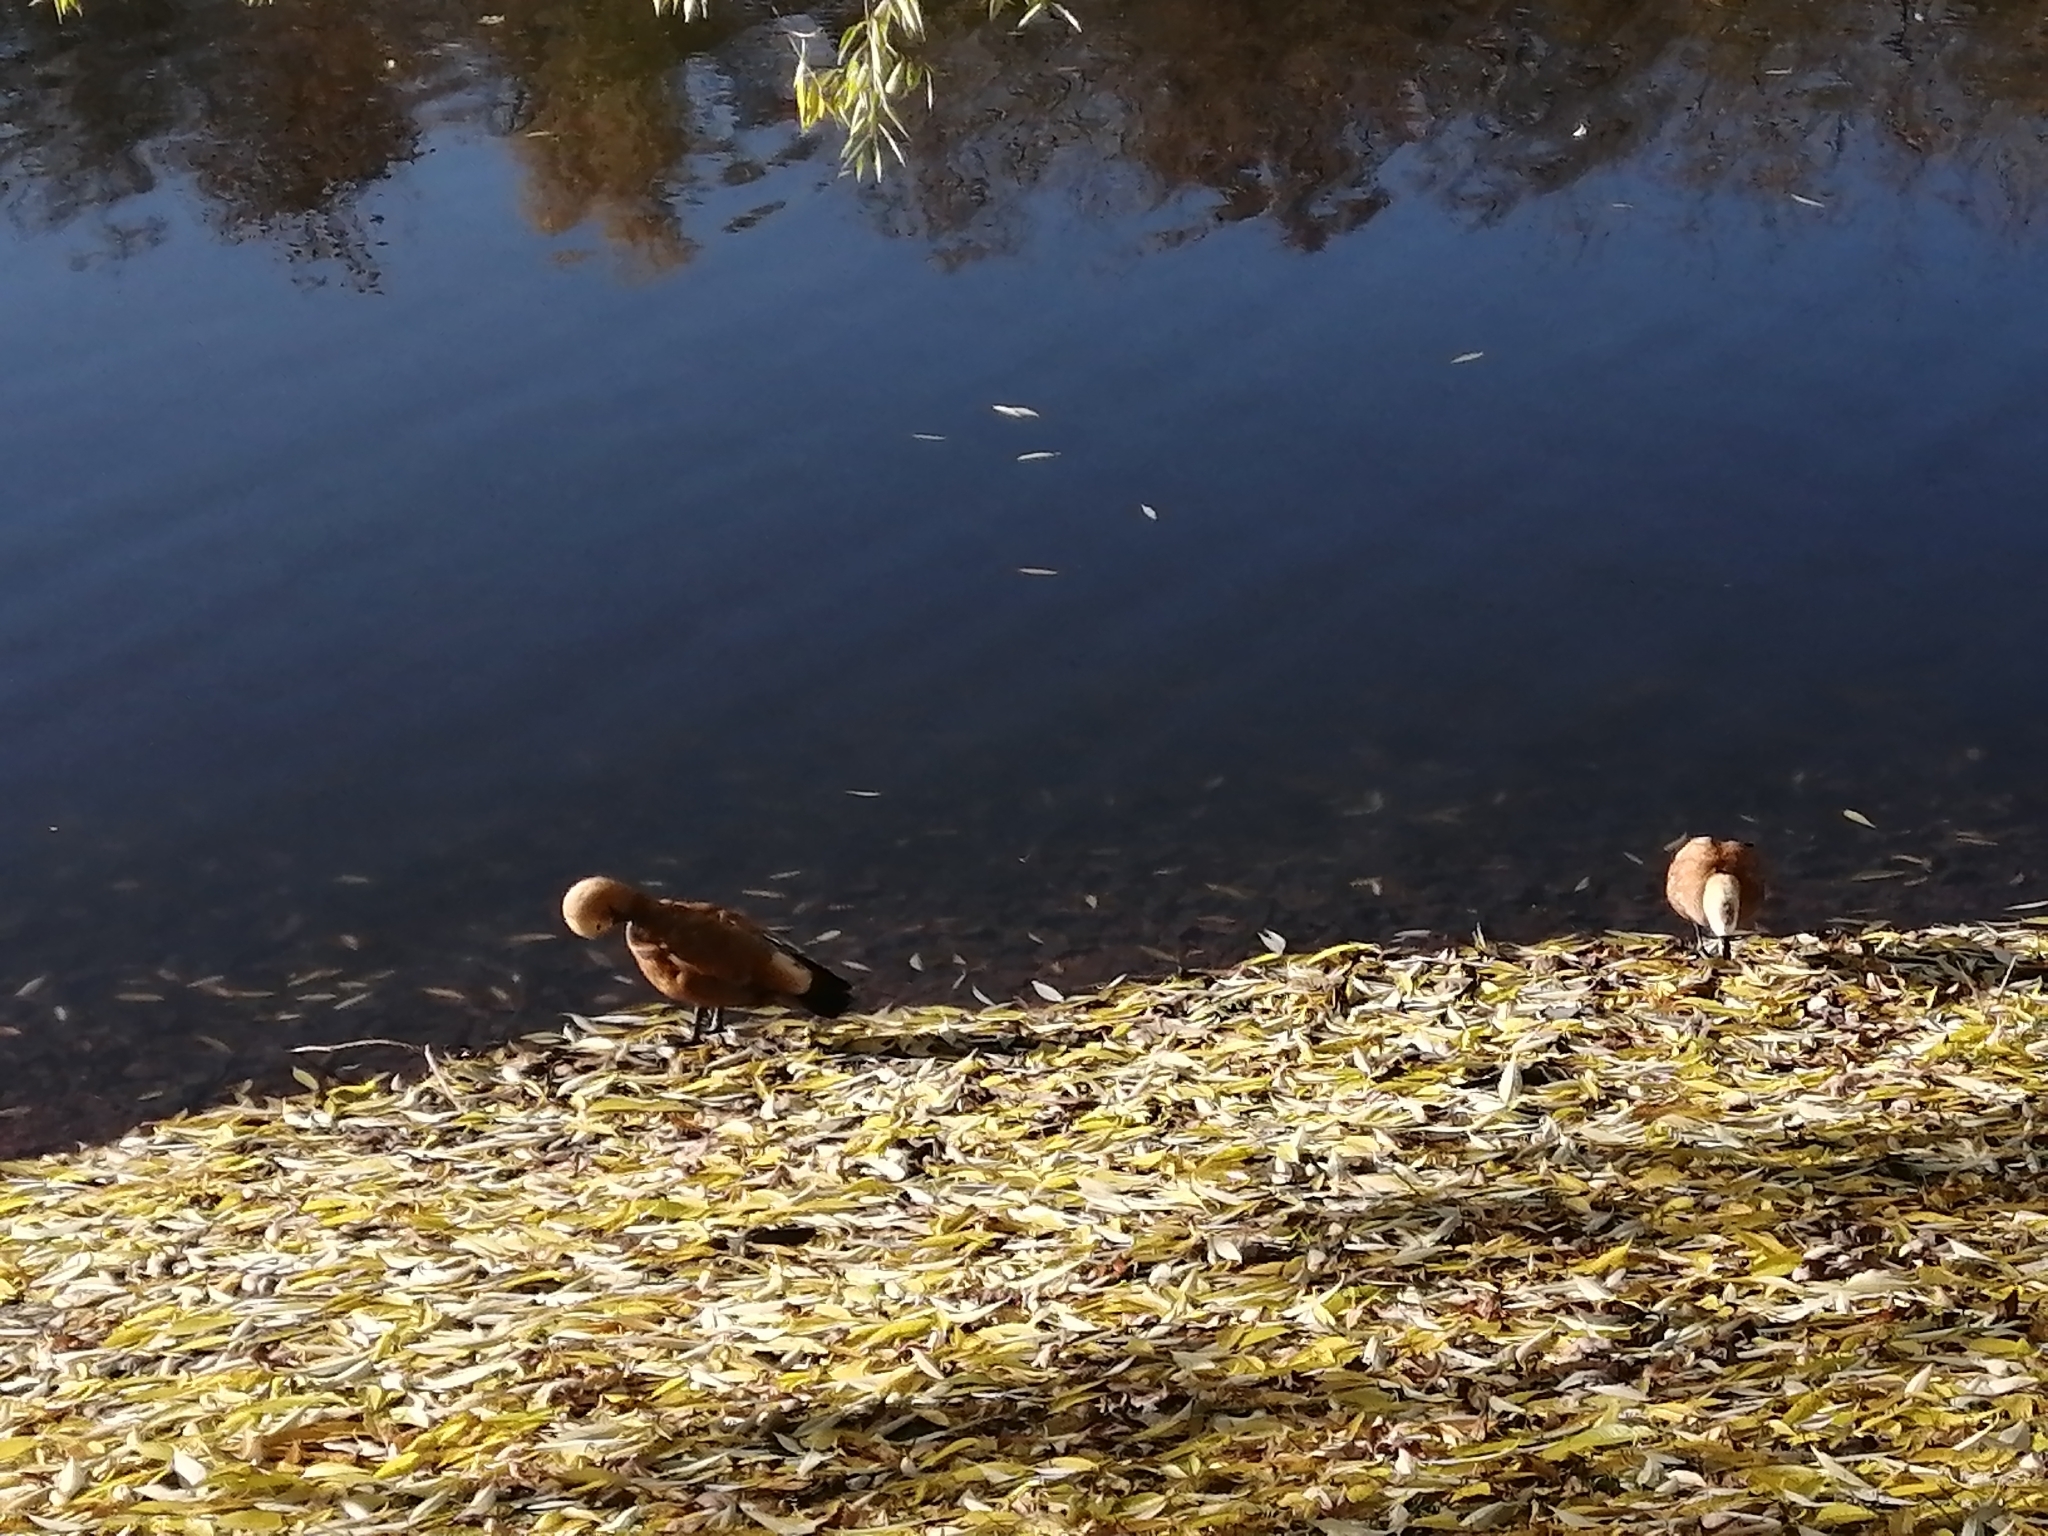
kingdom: Animalia
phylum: Chordata
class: Aves
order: Anseriformes
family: Anatidae
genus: Tadorna
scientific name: Tadorna ferruginea
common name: Ruddy shelduck
